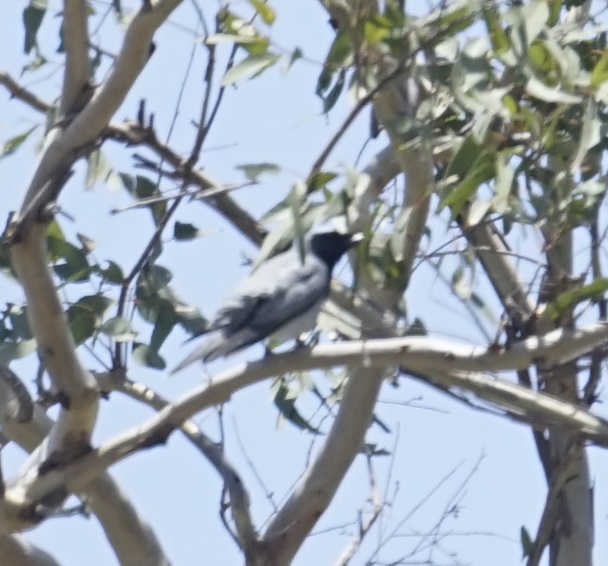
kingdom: Animalia
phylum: Chordata
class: Aves
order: Passeriformes
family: Campephagidae
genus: Coracina
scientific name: Coracina novaehollandiae
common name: Black-faced cuckooshrike
